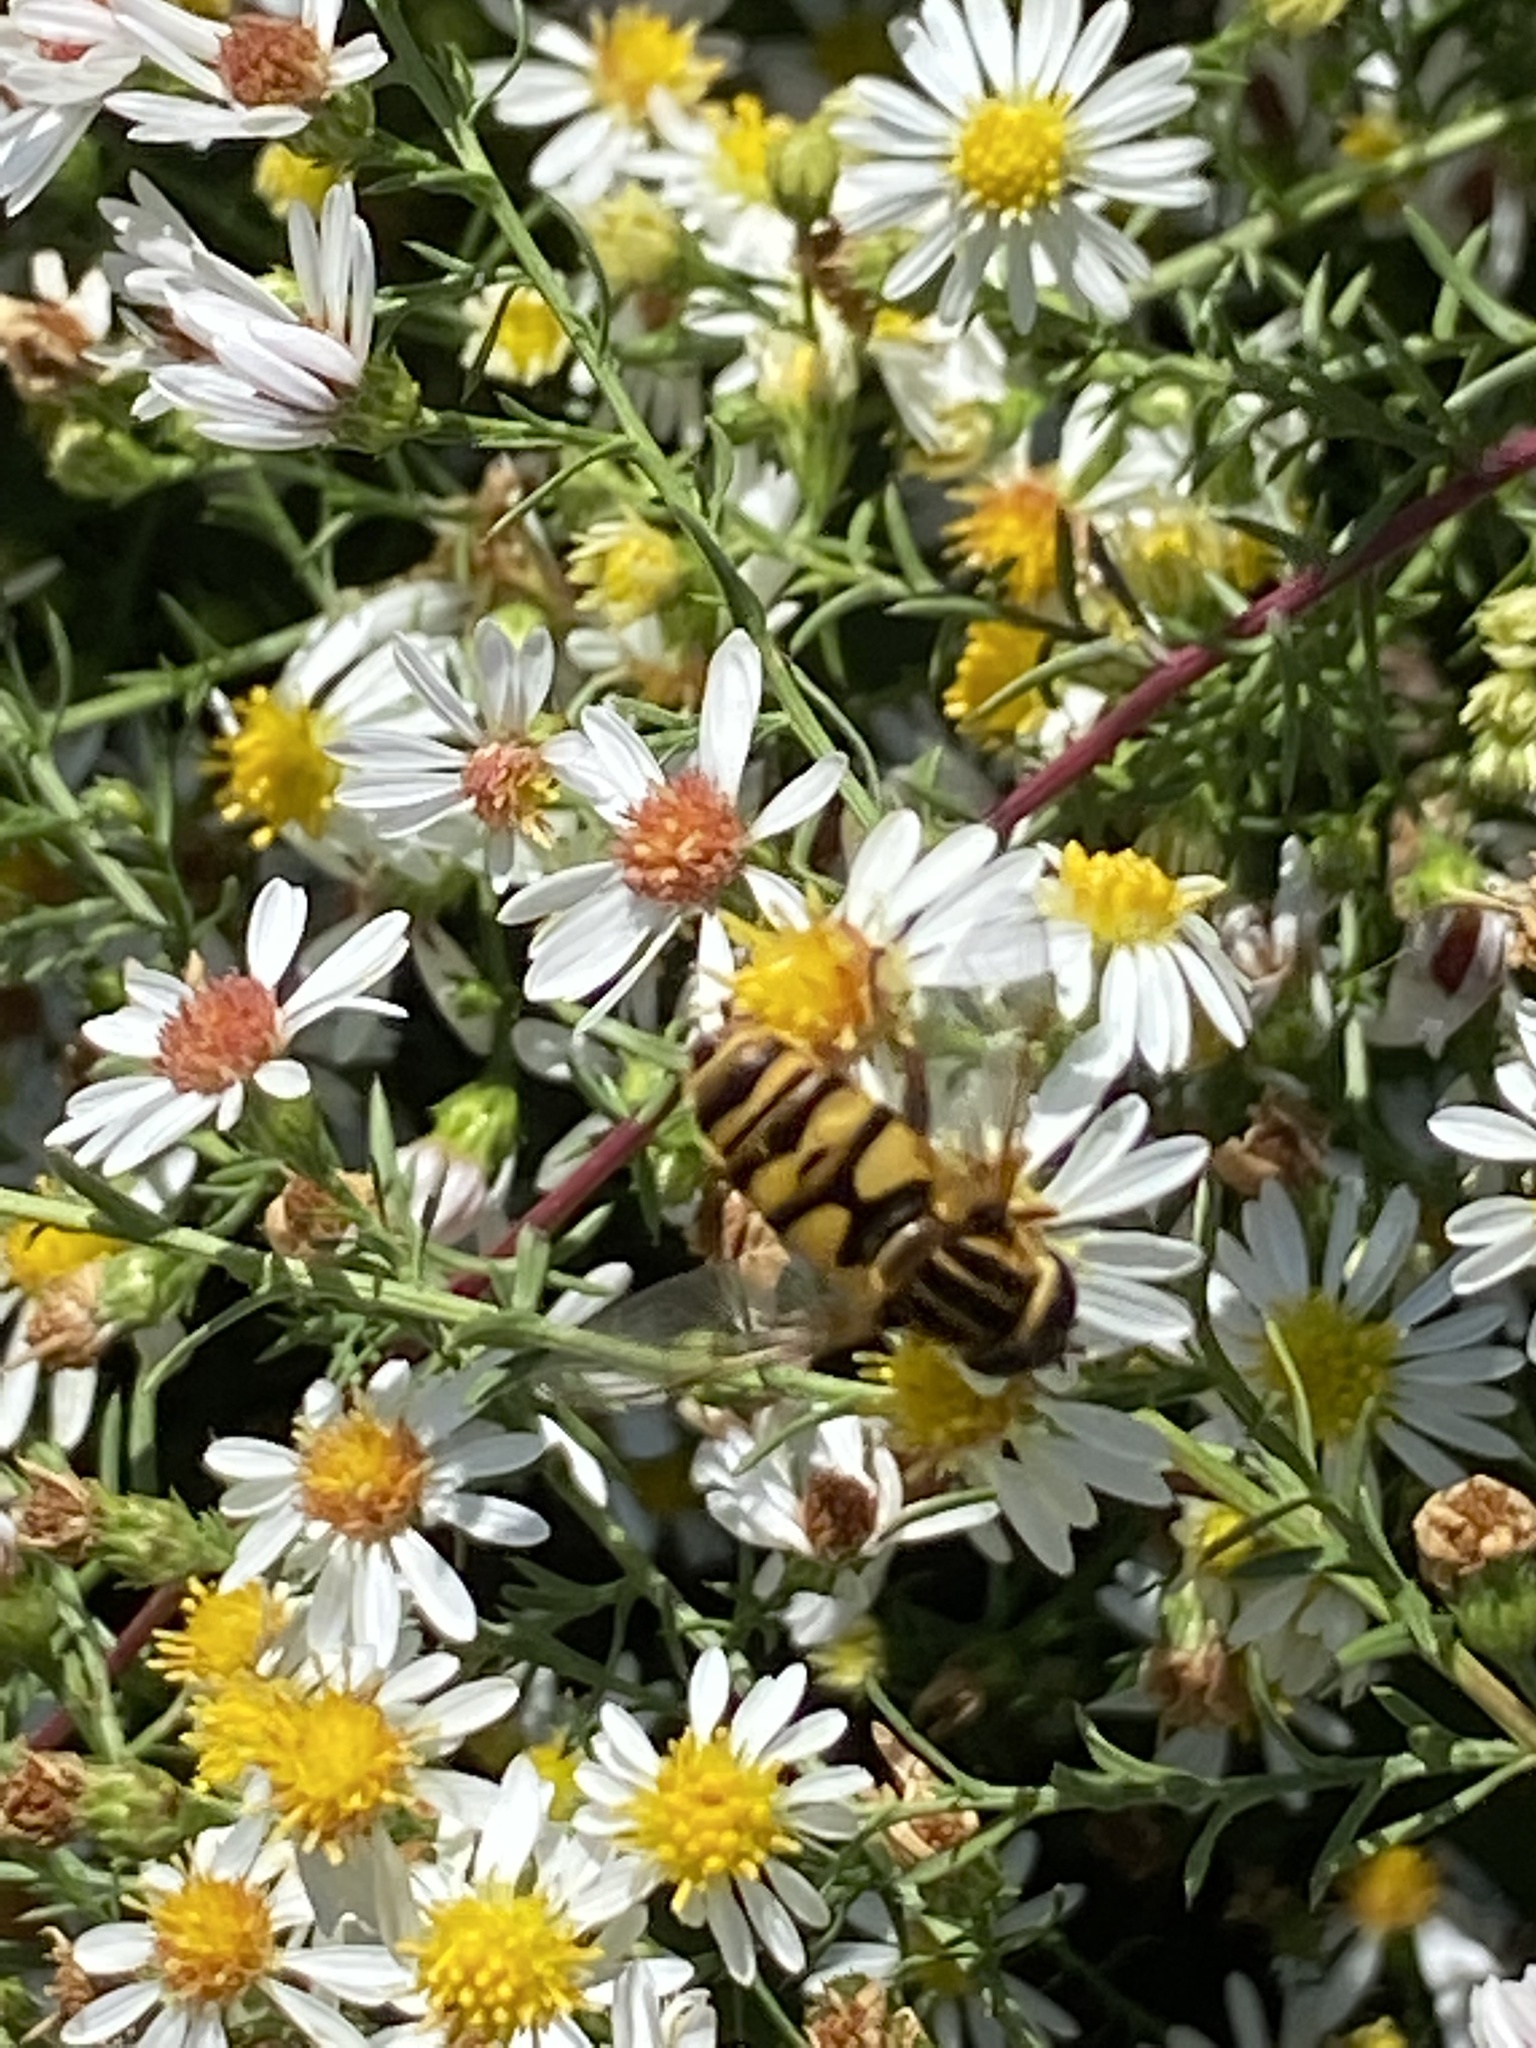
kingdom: Animalia
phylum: Arthropoda
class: Insecta
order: Diptera
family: Syrphidae
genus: Helophilus
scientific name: Helophilus fasciatus
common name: Narrow-headed marsh fly
